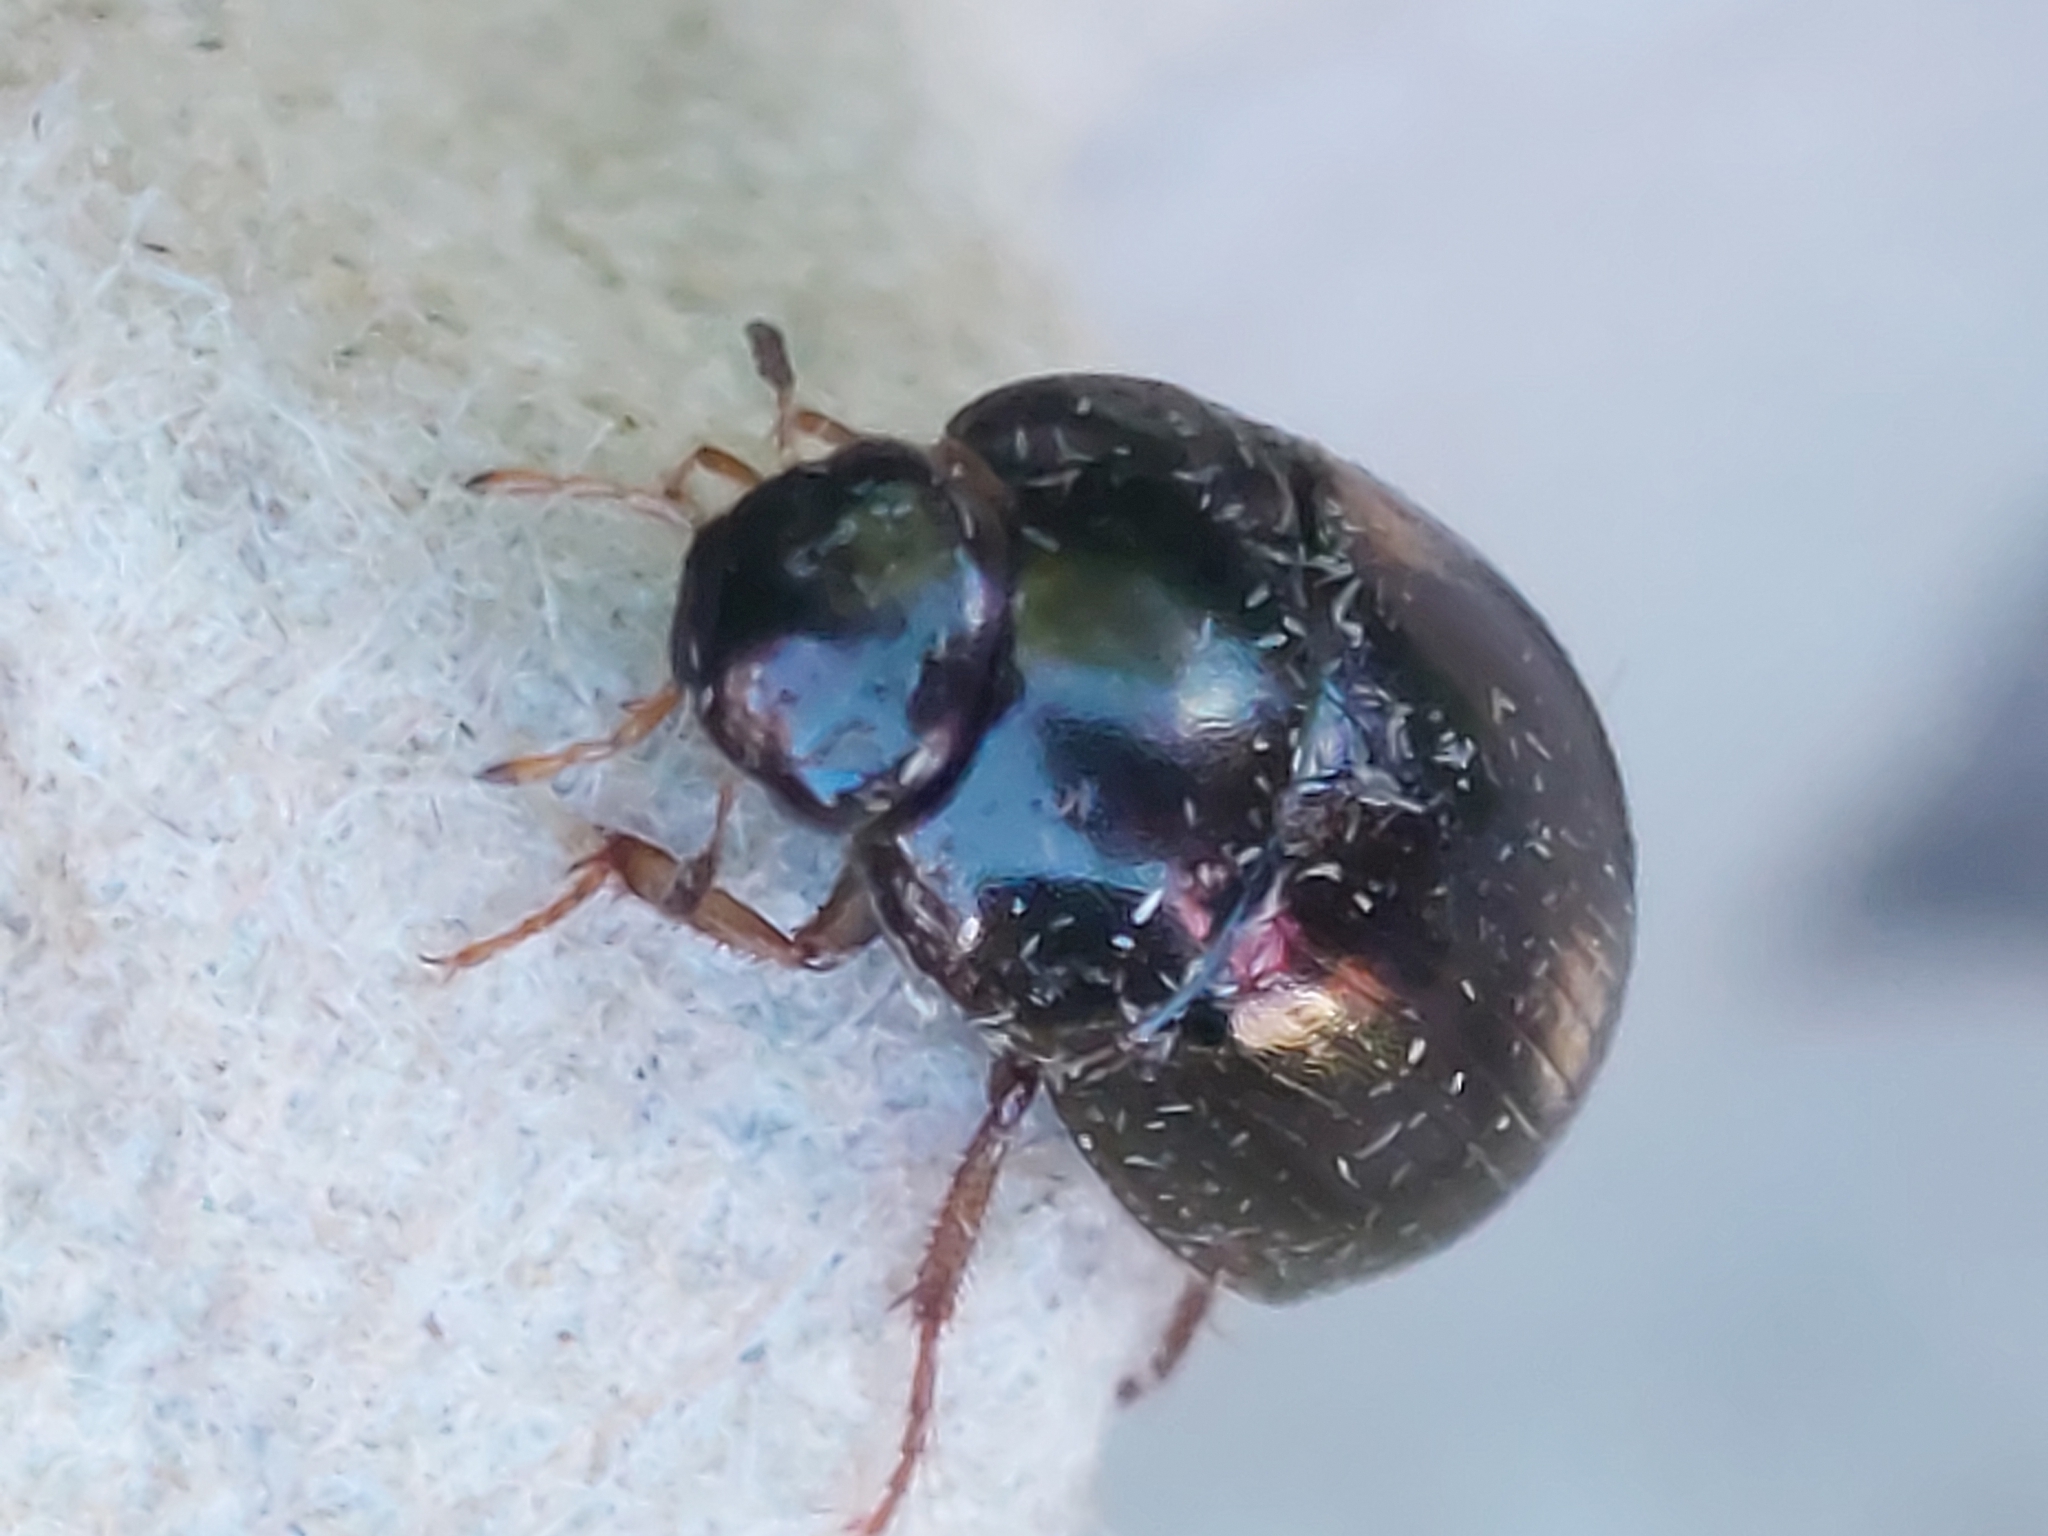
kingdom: Animalia
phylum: Arthropoda
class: Insecta
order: Coleoptera
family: Hydrophilidae
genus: Hydrobius
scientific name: Hydrobius
